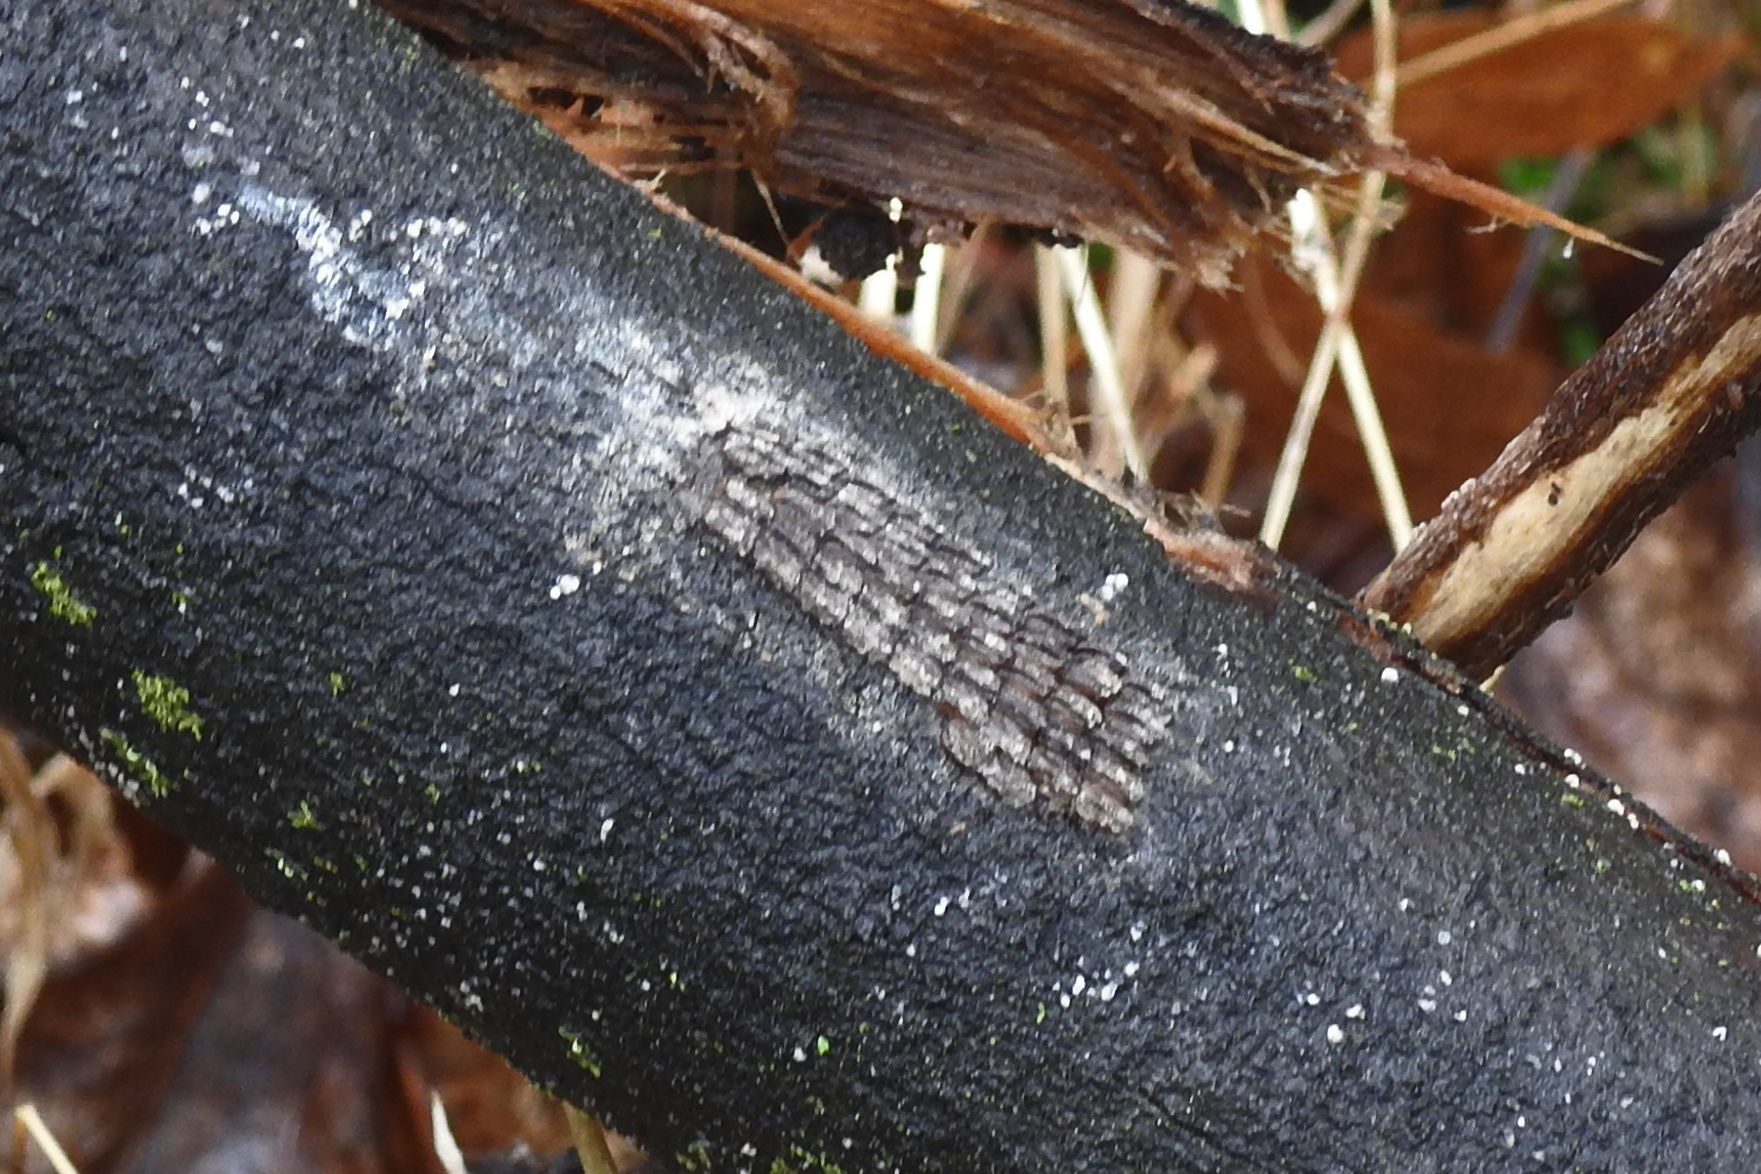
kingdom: Animalia
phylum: Arthropoda
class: Insecta
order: Hemiptera
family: Fulgoridae
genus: Lycorma
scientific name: Lycorma delicatula
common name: Spotted lanternfly
